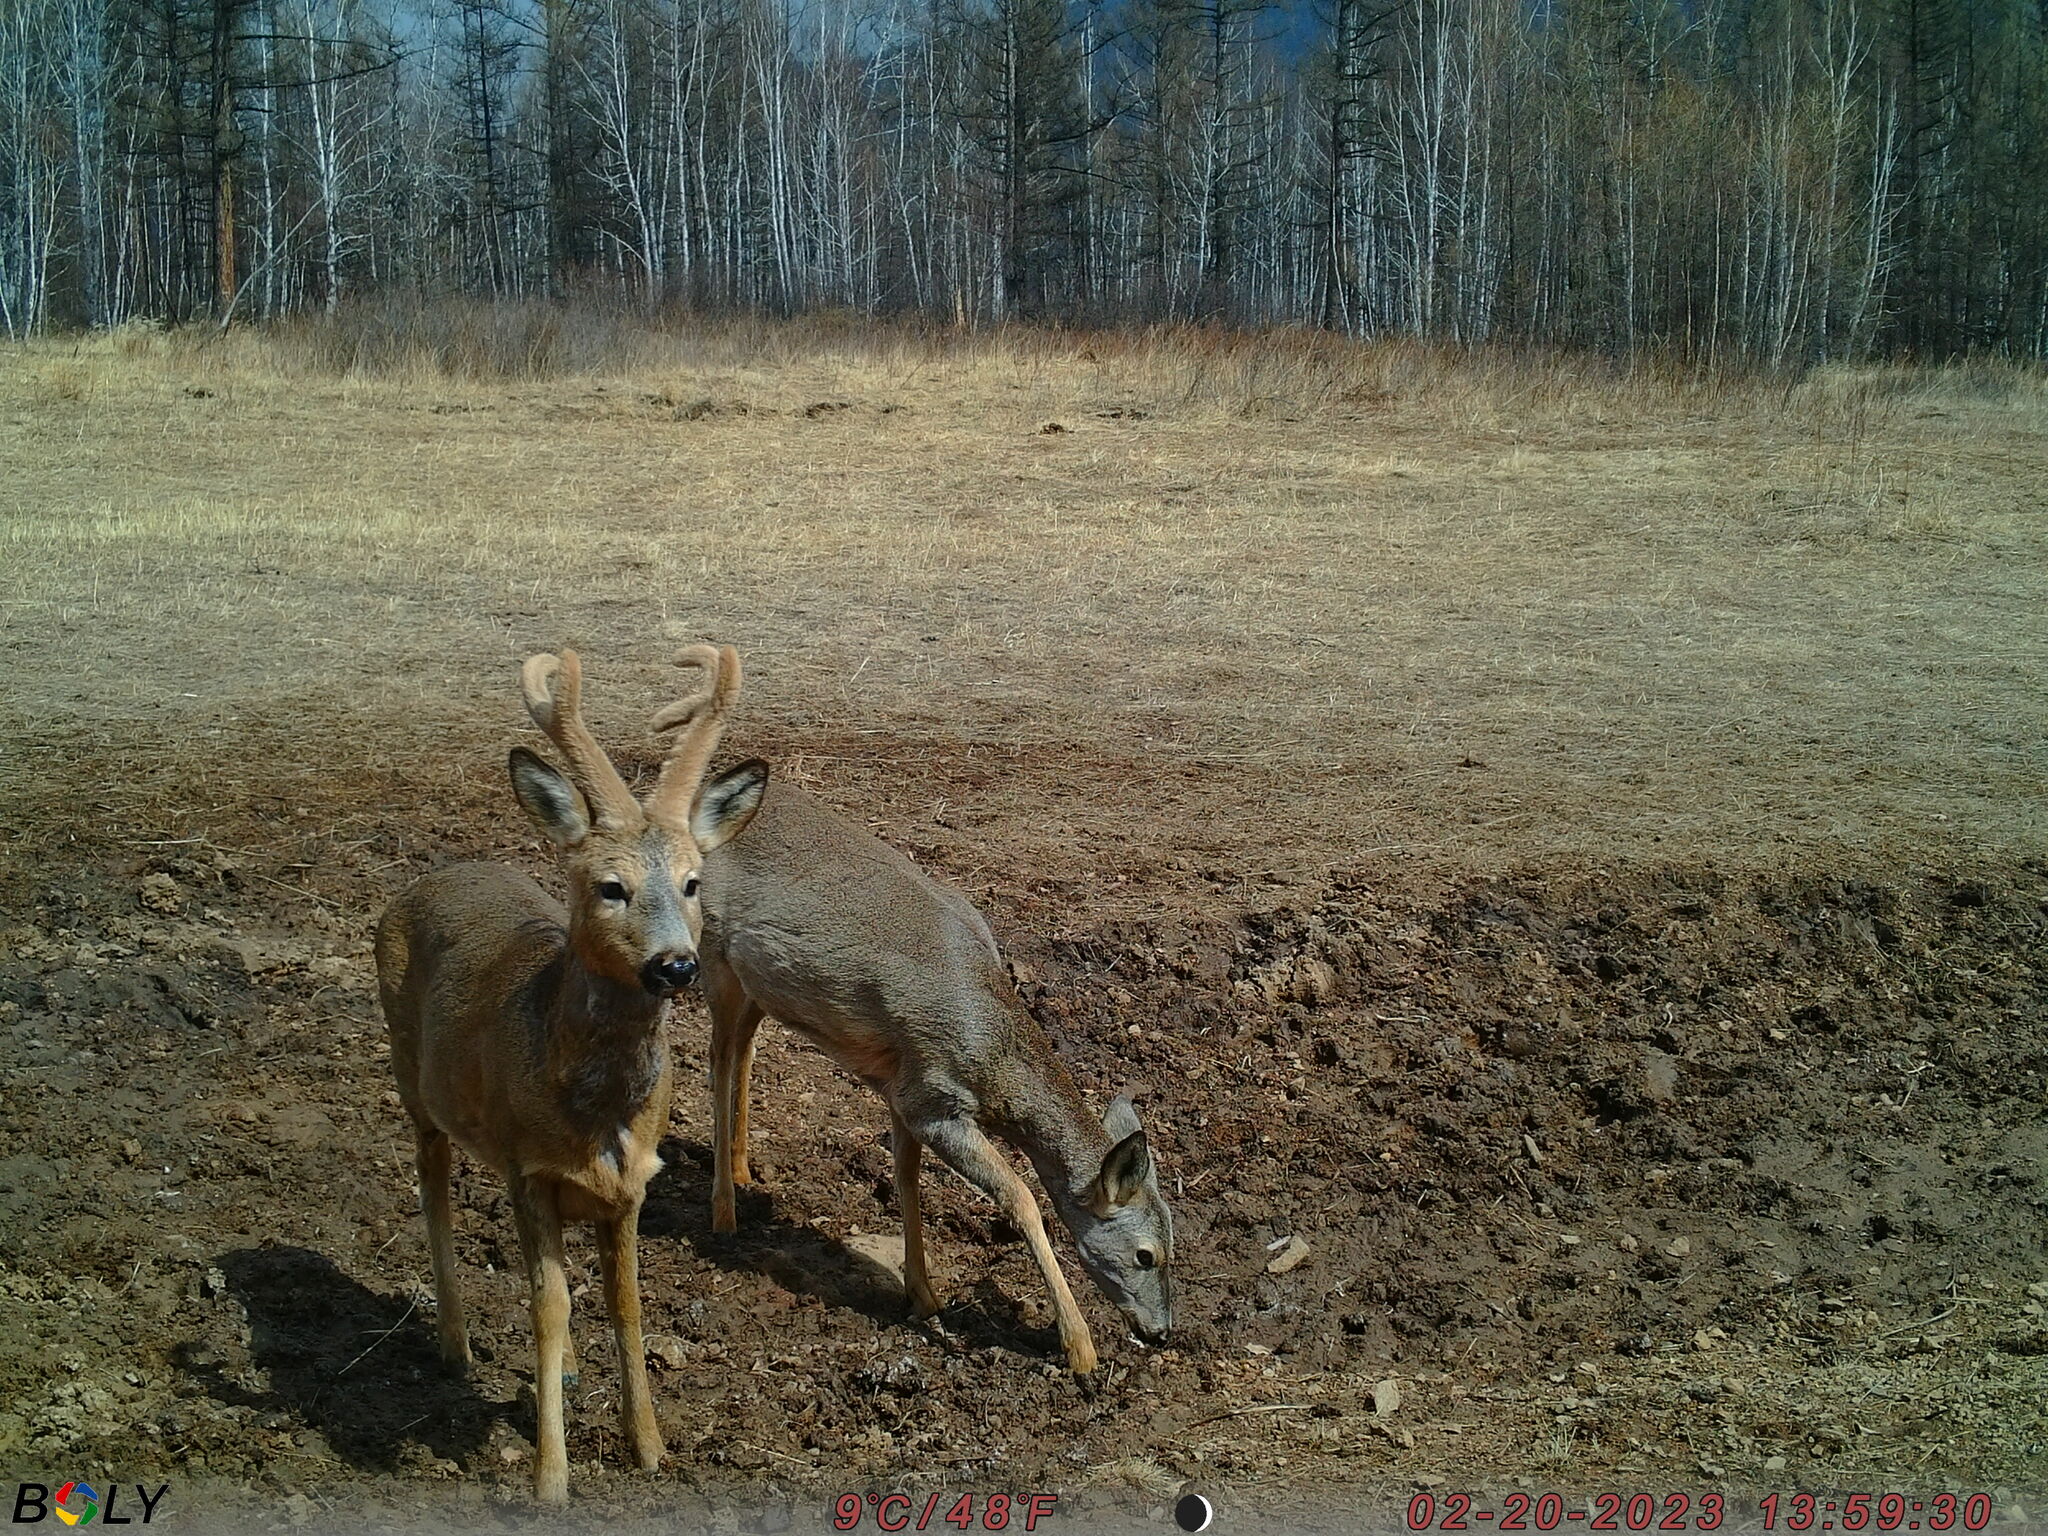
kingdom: Animalia
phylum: Chordata
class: Mammalia
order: Artiodactyla
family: Cervidae
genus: Capreolus
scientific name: Capreolus pygargus
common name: Siberian roe
